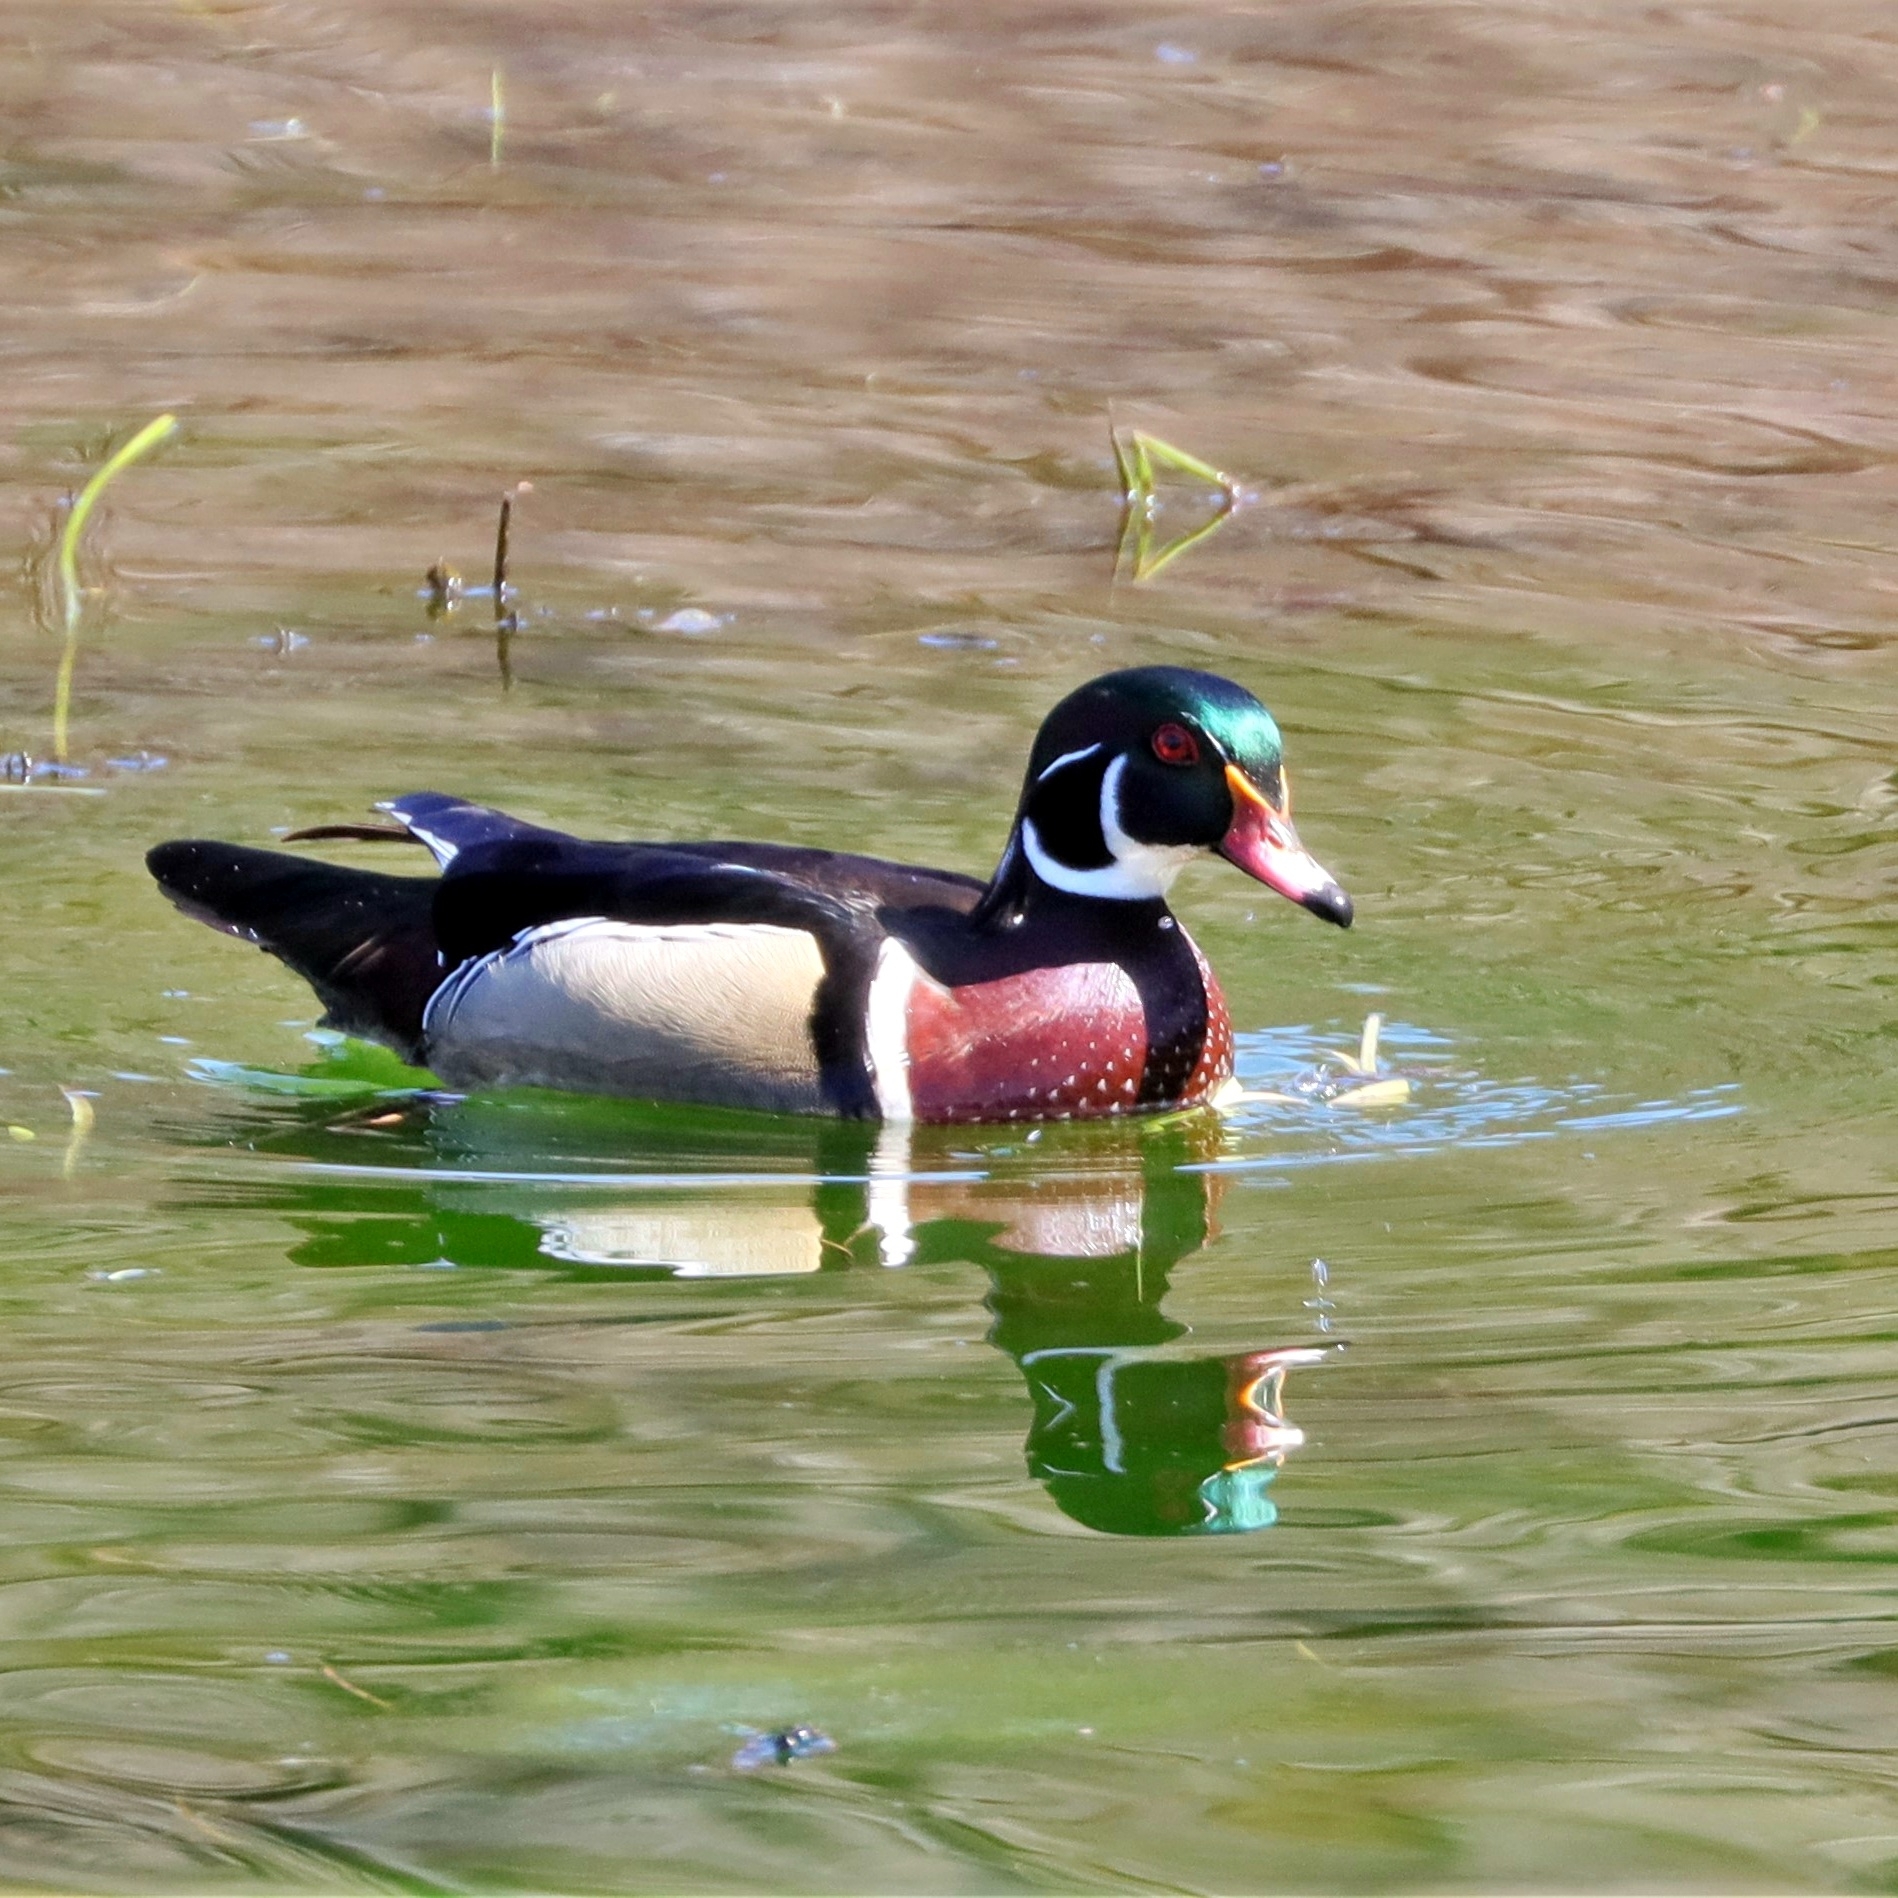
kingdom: Animalia
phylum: Chordata
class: Aves
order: Anseriformes
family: Anatidae
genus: Aix
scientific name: Aix sponsa
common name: Wood duck
